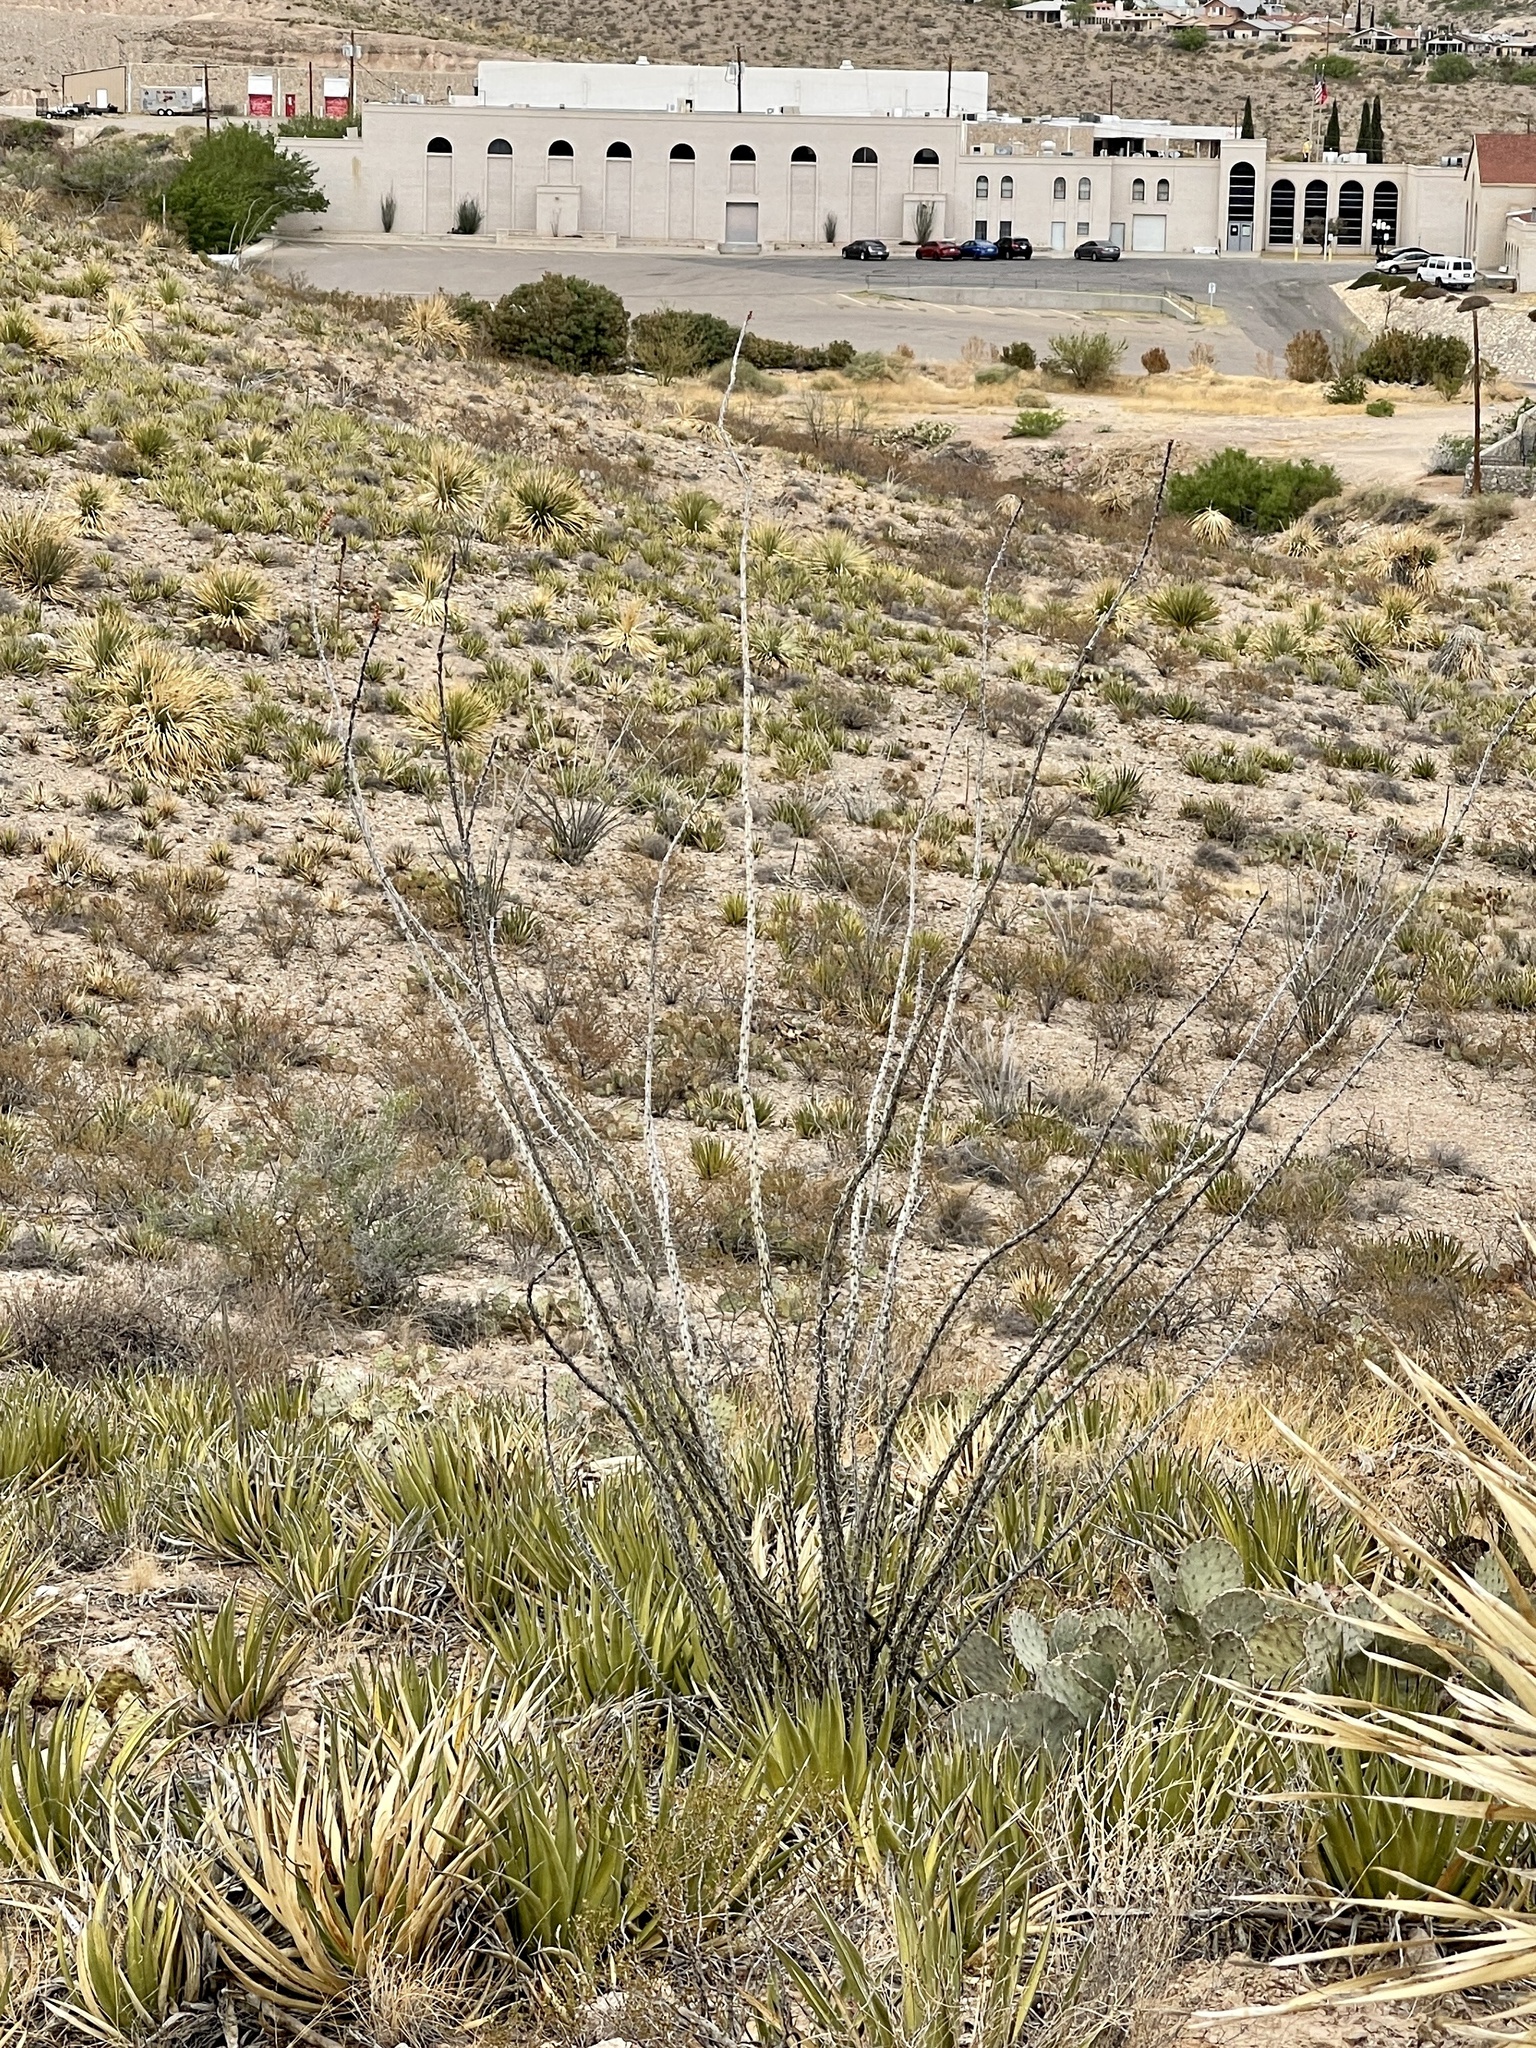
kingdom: Plantae
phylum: Tracheophyta
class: Magnoliopsida
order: Ericales
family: Fouquieriaceae
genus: Fouquieria
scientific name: Fouquieria splendens
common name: Vine-cactus
